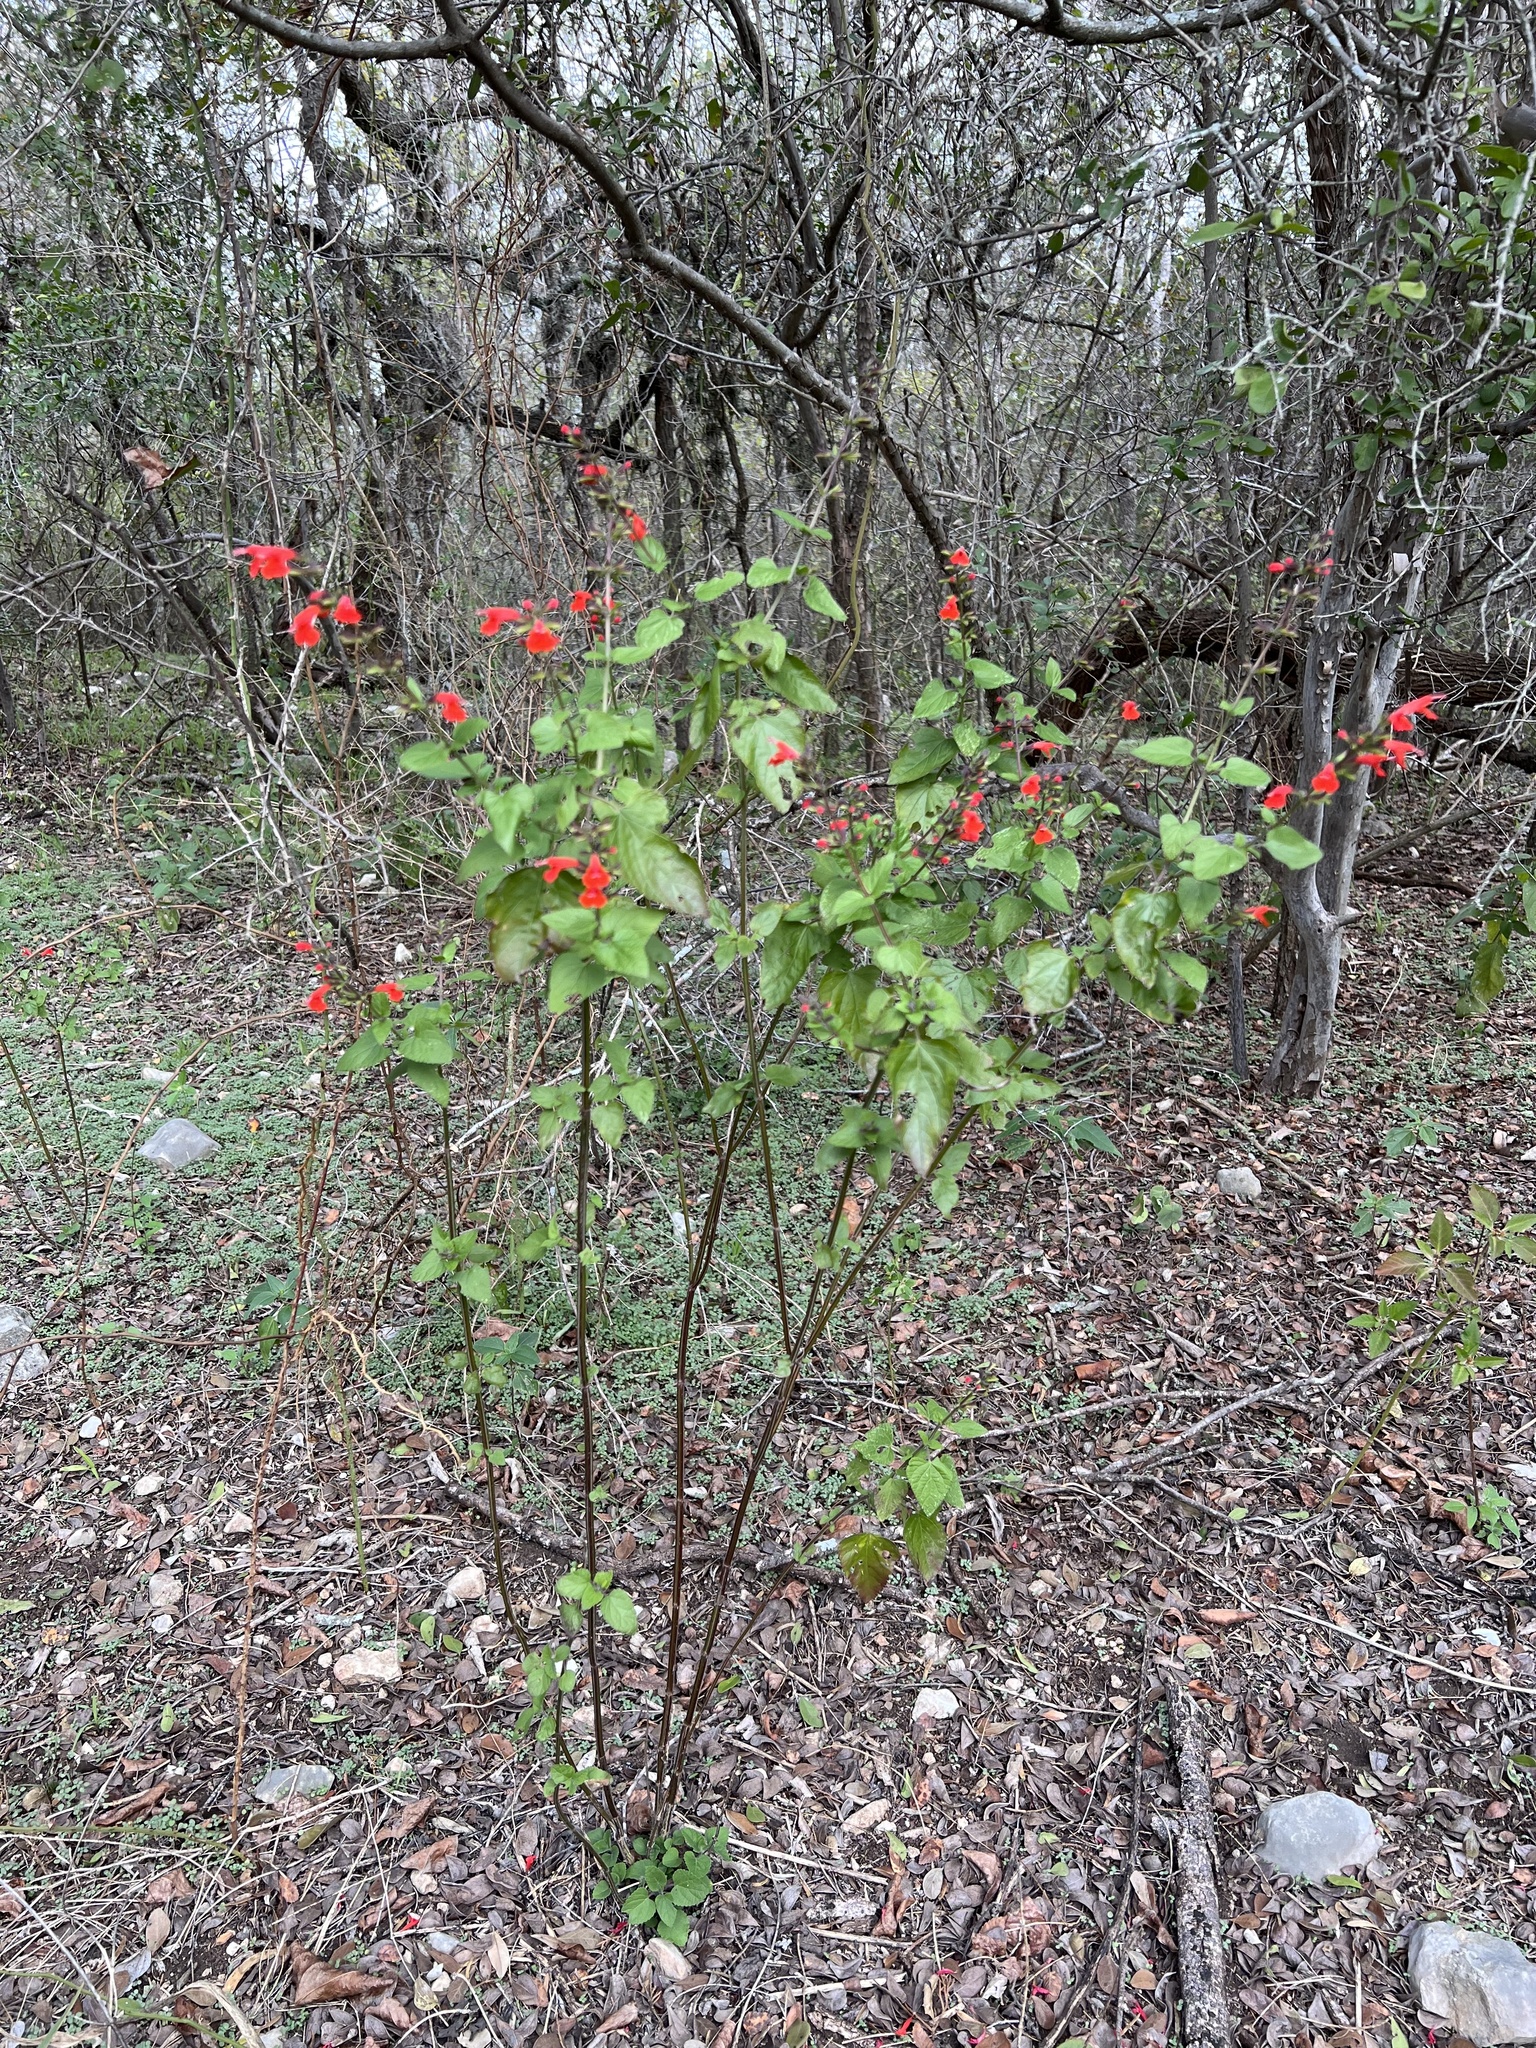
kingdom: Plantae
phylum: Tracheophyta
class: Magnoliopsida
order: Lamiales
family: Lamiaceae
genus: Salvia
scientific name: Salvia coccinea
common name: Blood sage
